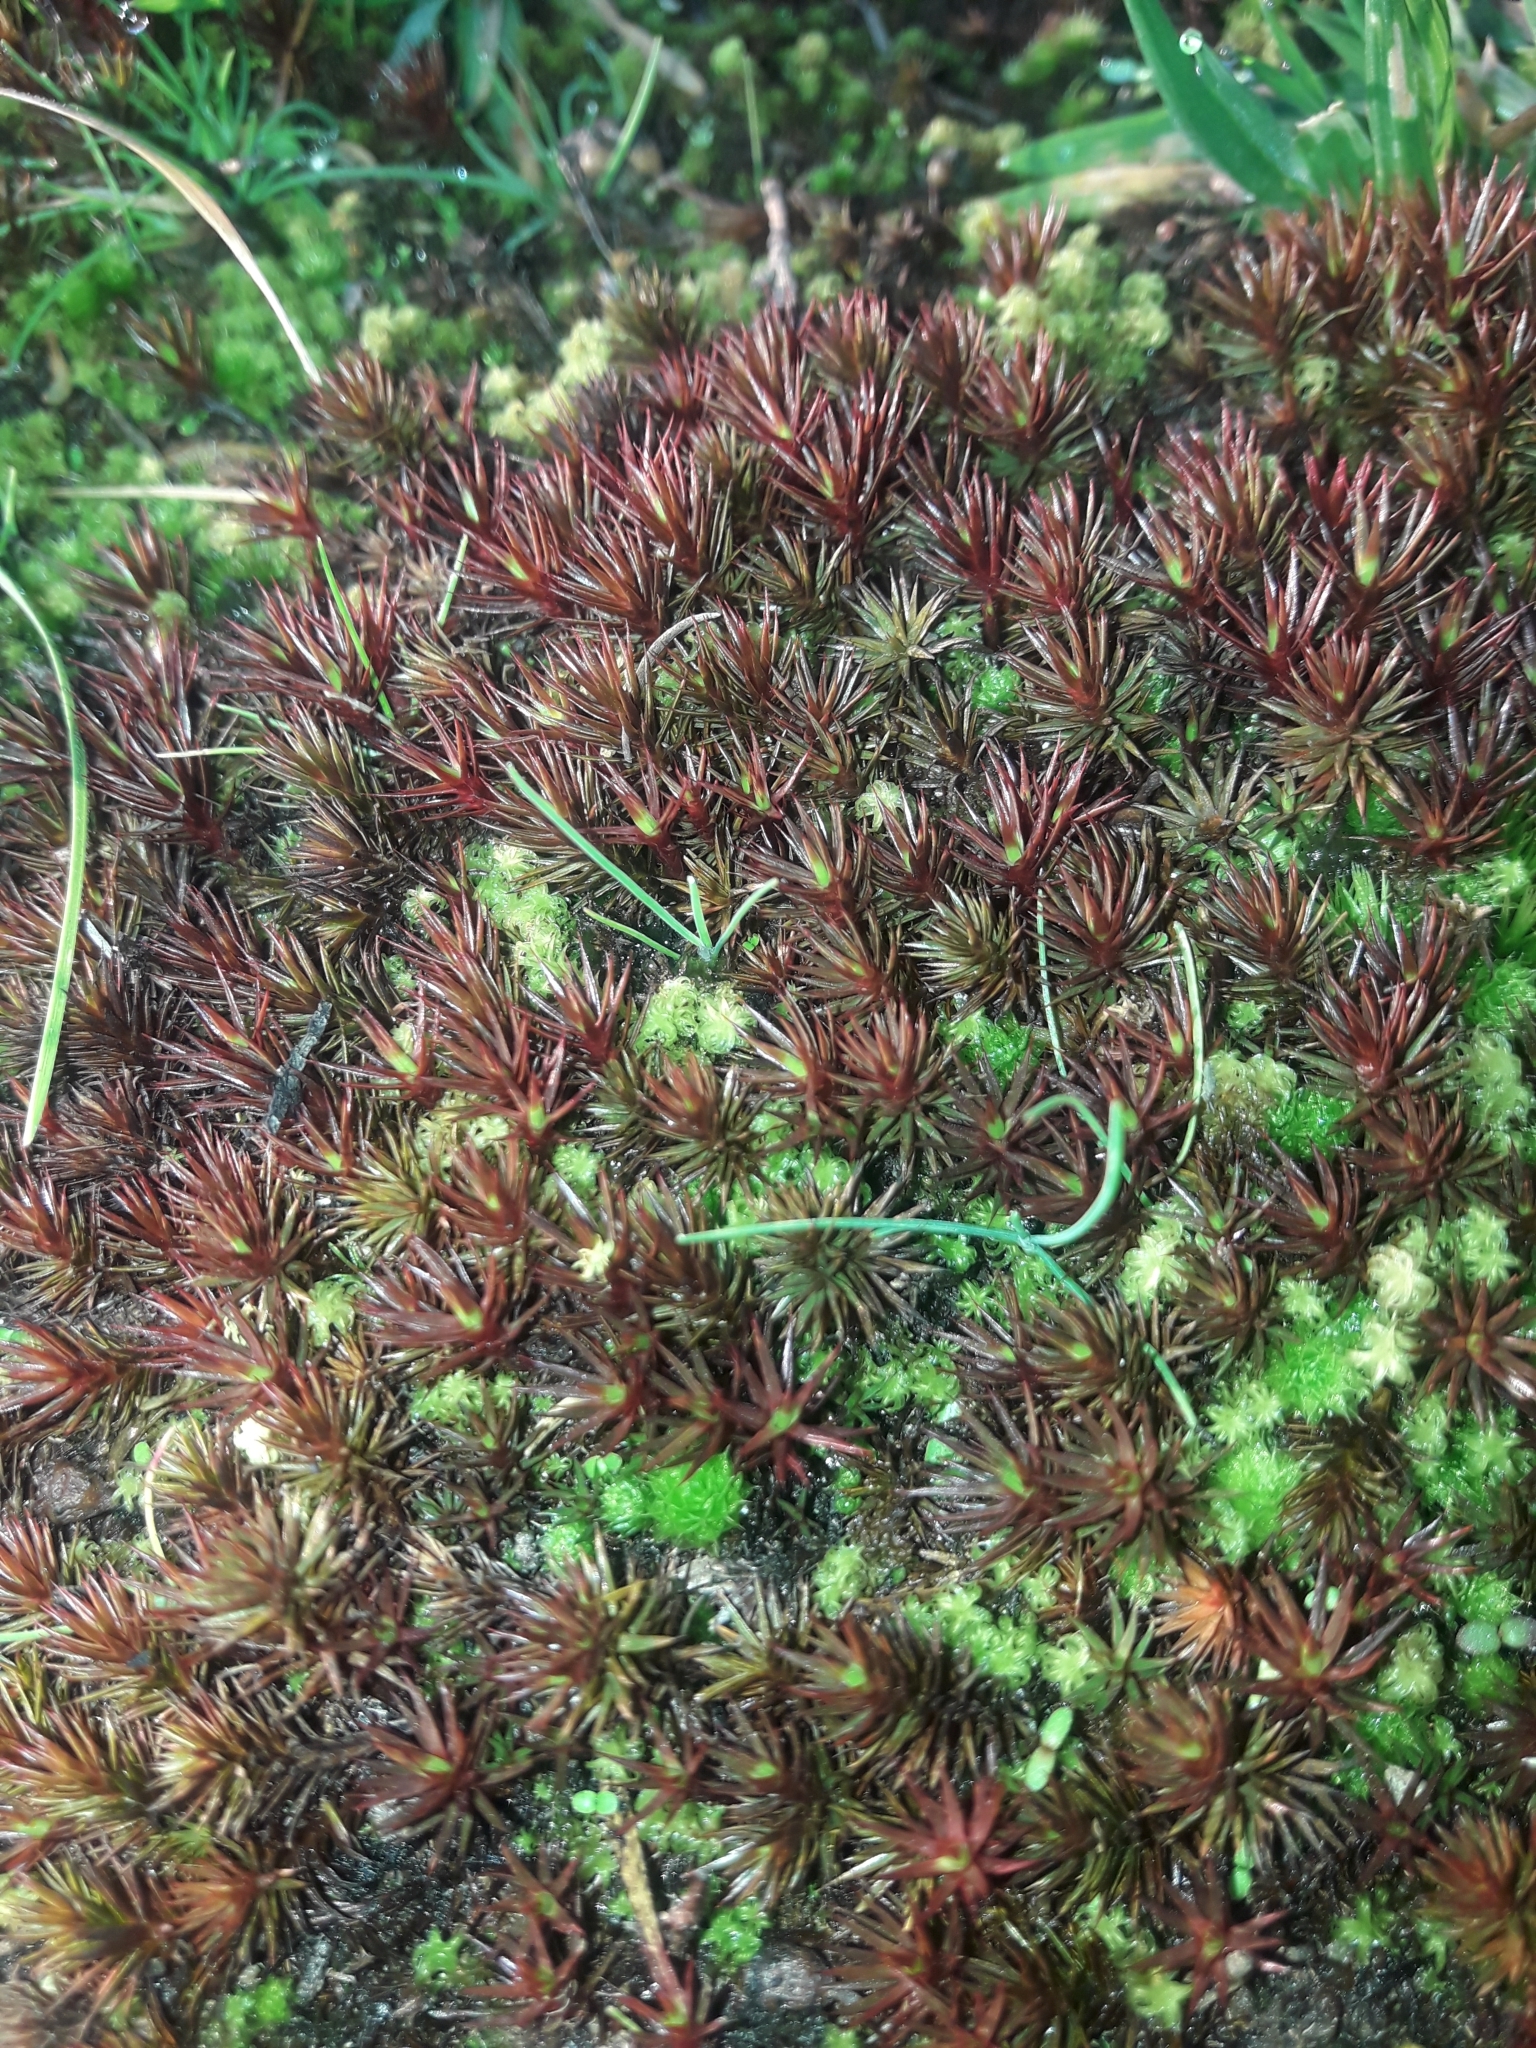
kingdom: Plantae
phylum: Bryophyta
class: Polytrichopsida
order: Polytrichales
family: Polytrichaceae
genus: Polytrichum
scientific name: Polytrichum juniperinum
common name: Juniper haircap moss
